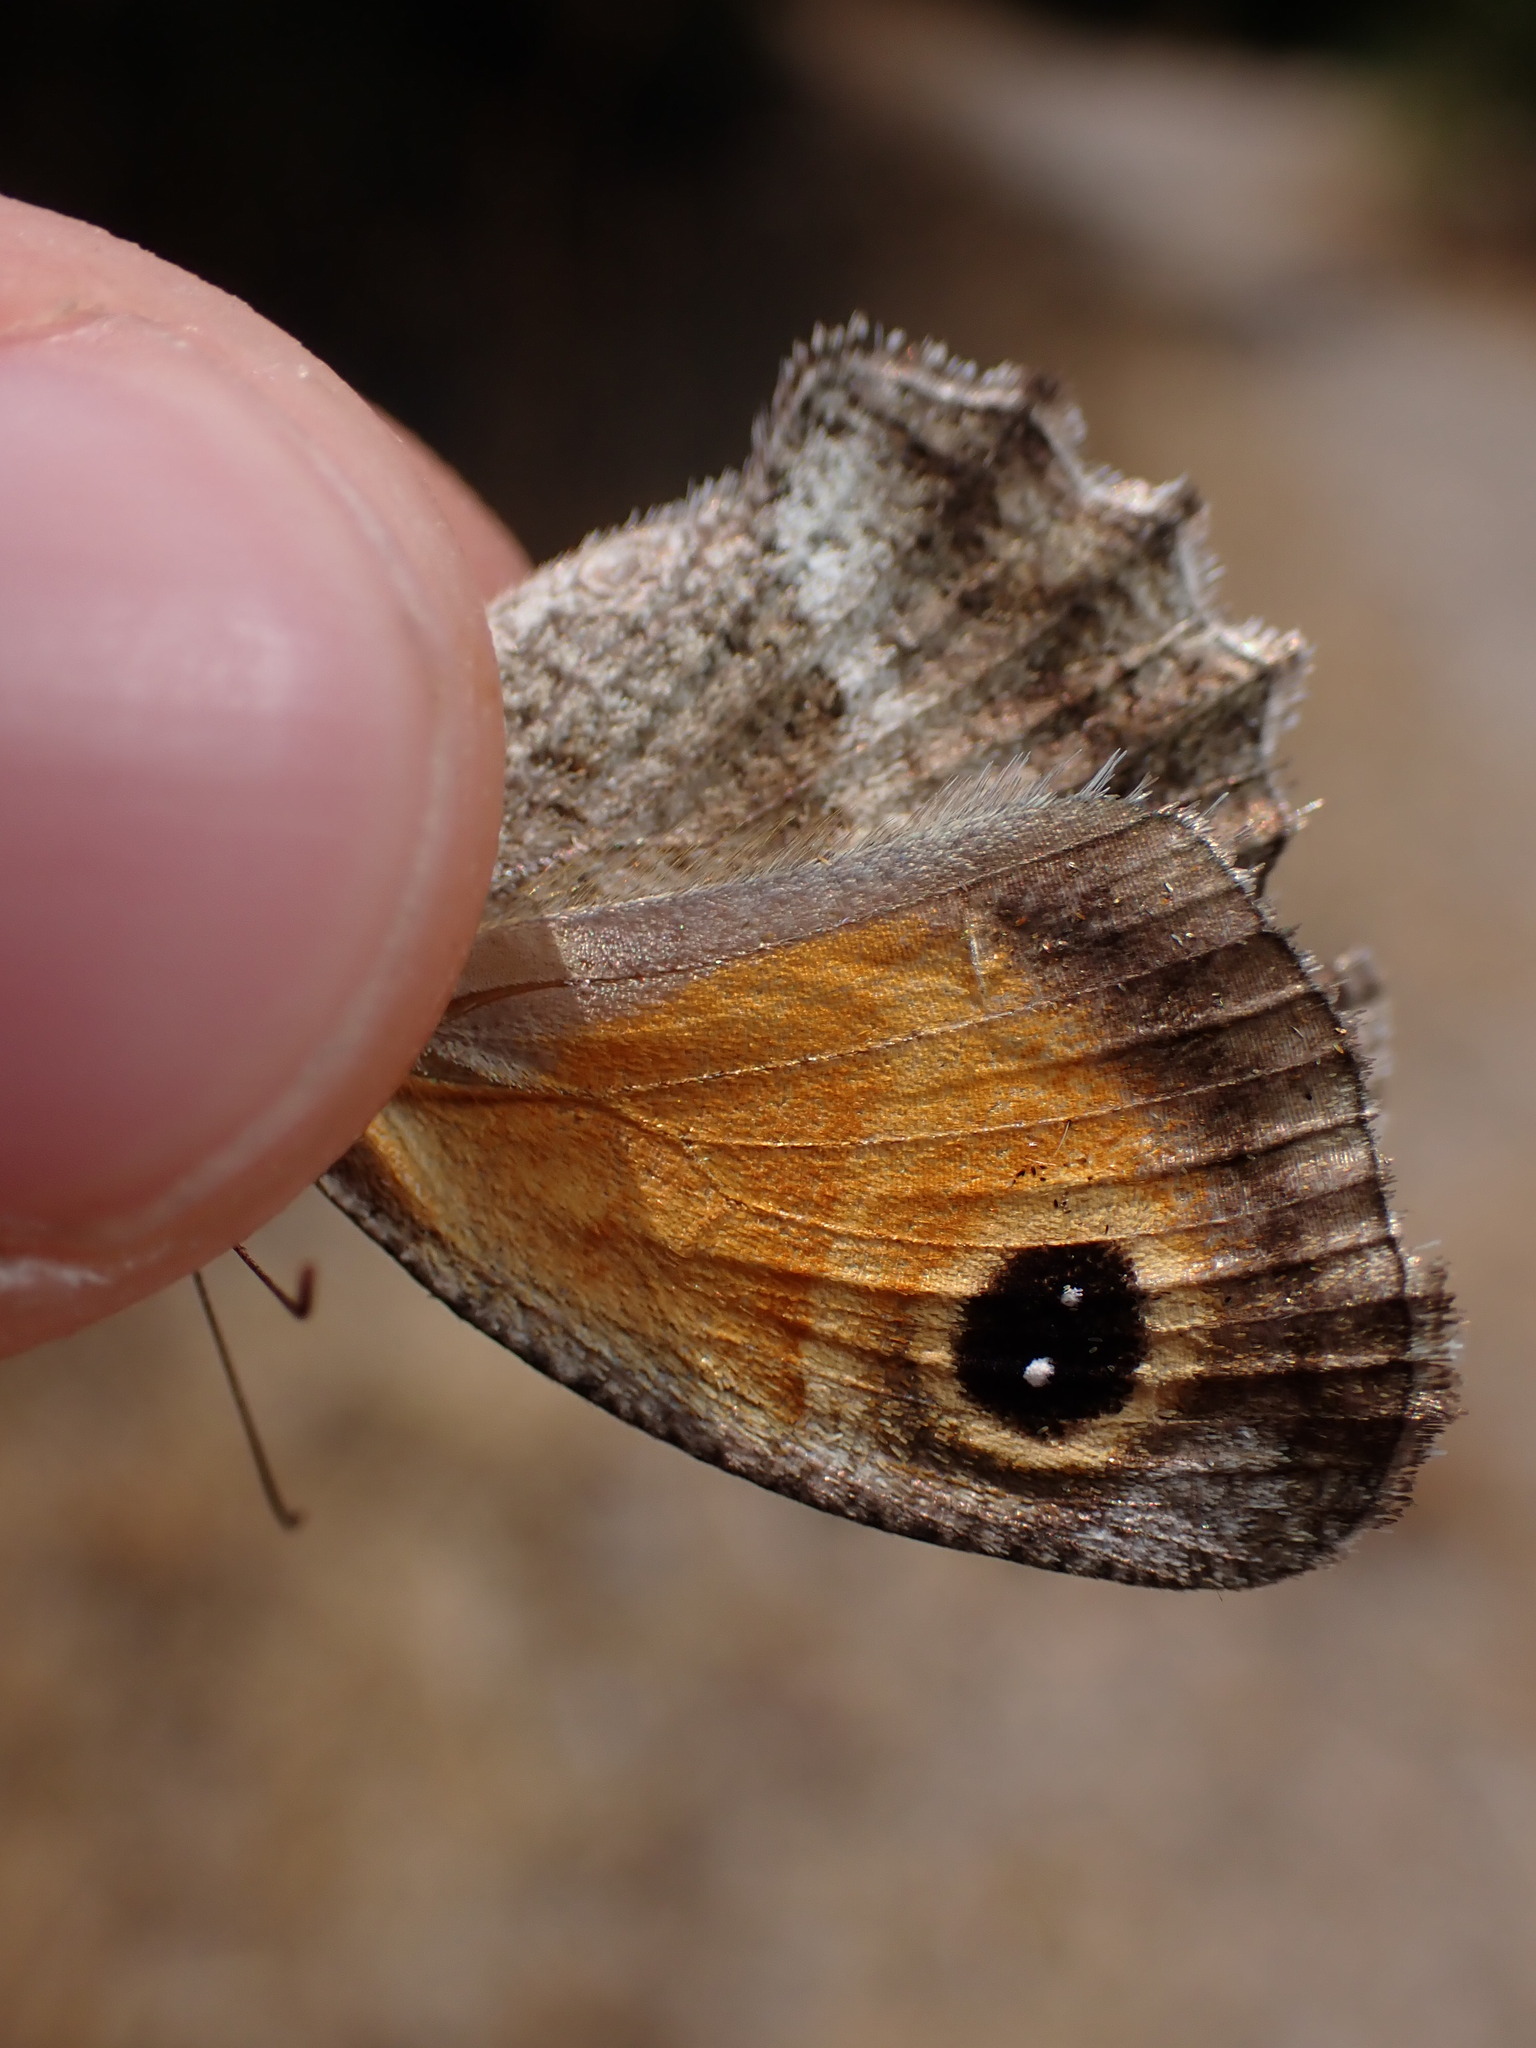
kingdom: Animalia
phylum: Arthropoda
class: Insecta
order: Lepidoptera
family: Nymphalidae
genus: Pyronia
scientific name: Pyronia cecilia
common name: Southern gatekeeper
